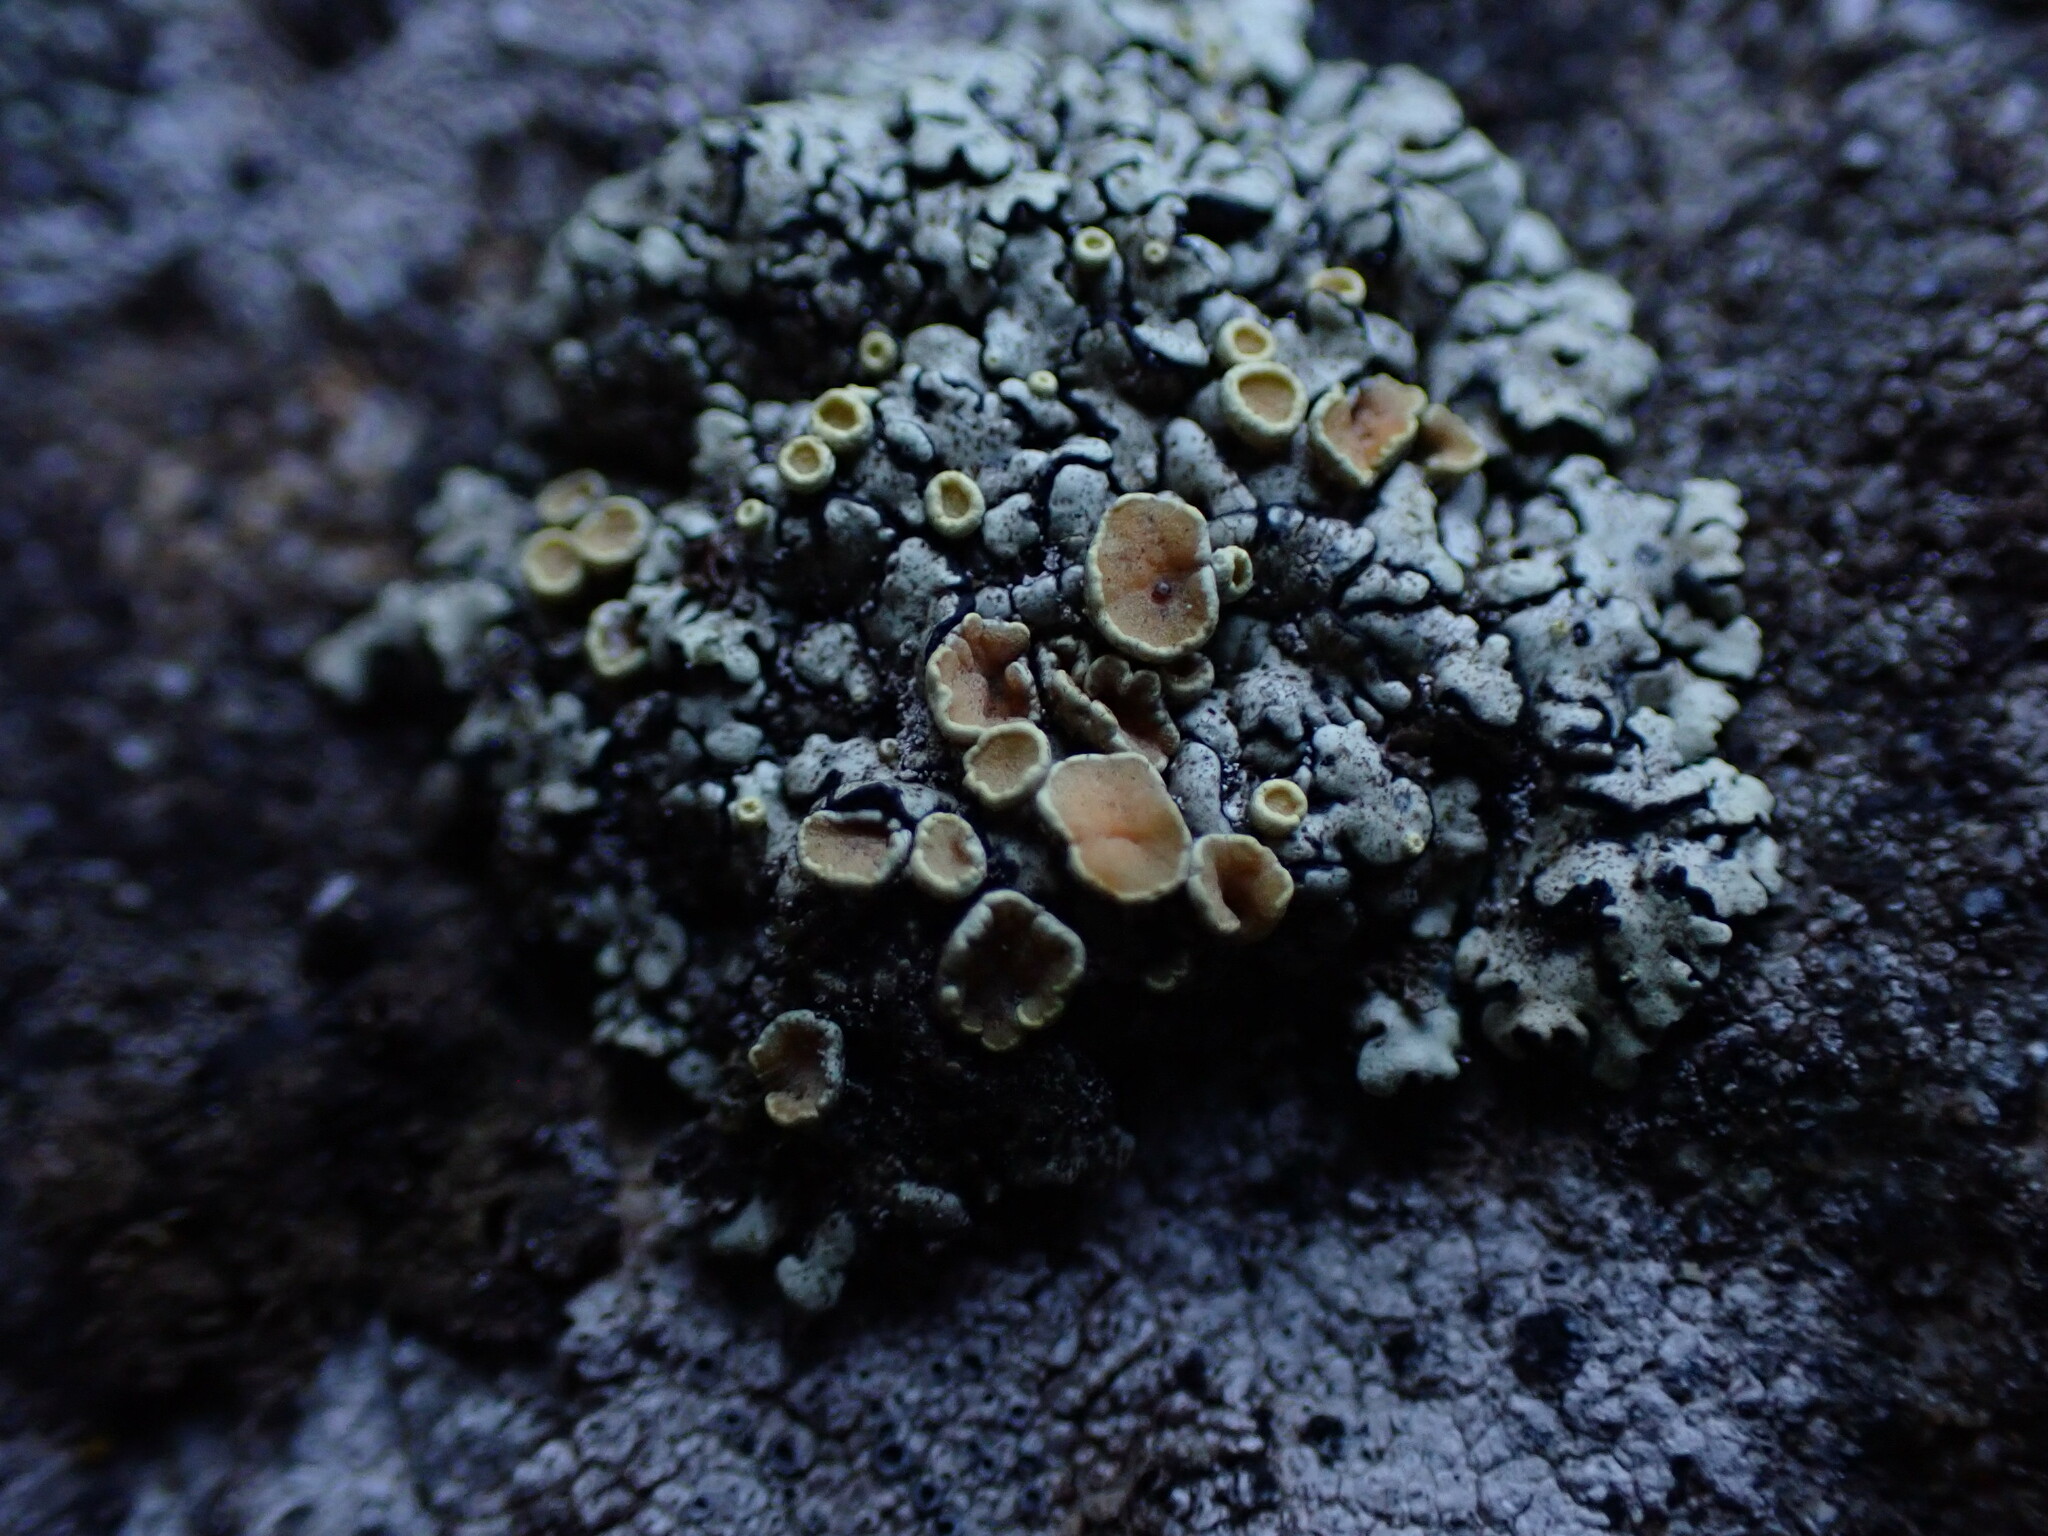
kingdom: Fungi
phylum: Ascomycota
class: Lecanoromycetes
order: Lecanorales
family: Lecanoraceae
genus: Omphalodina
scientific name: Omphalodina chrysoleuca
